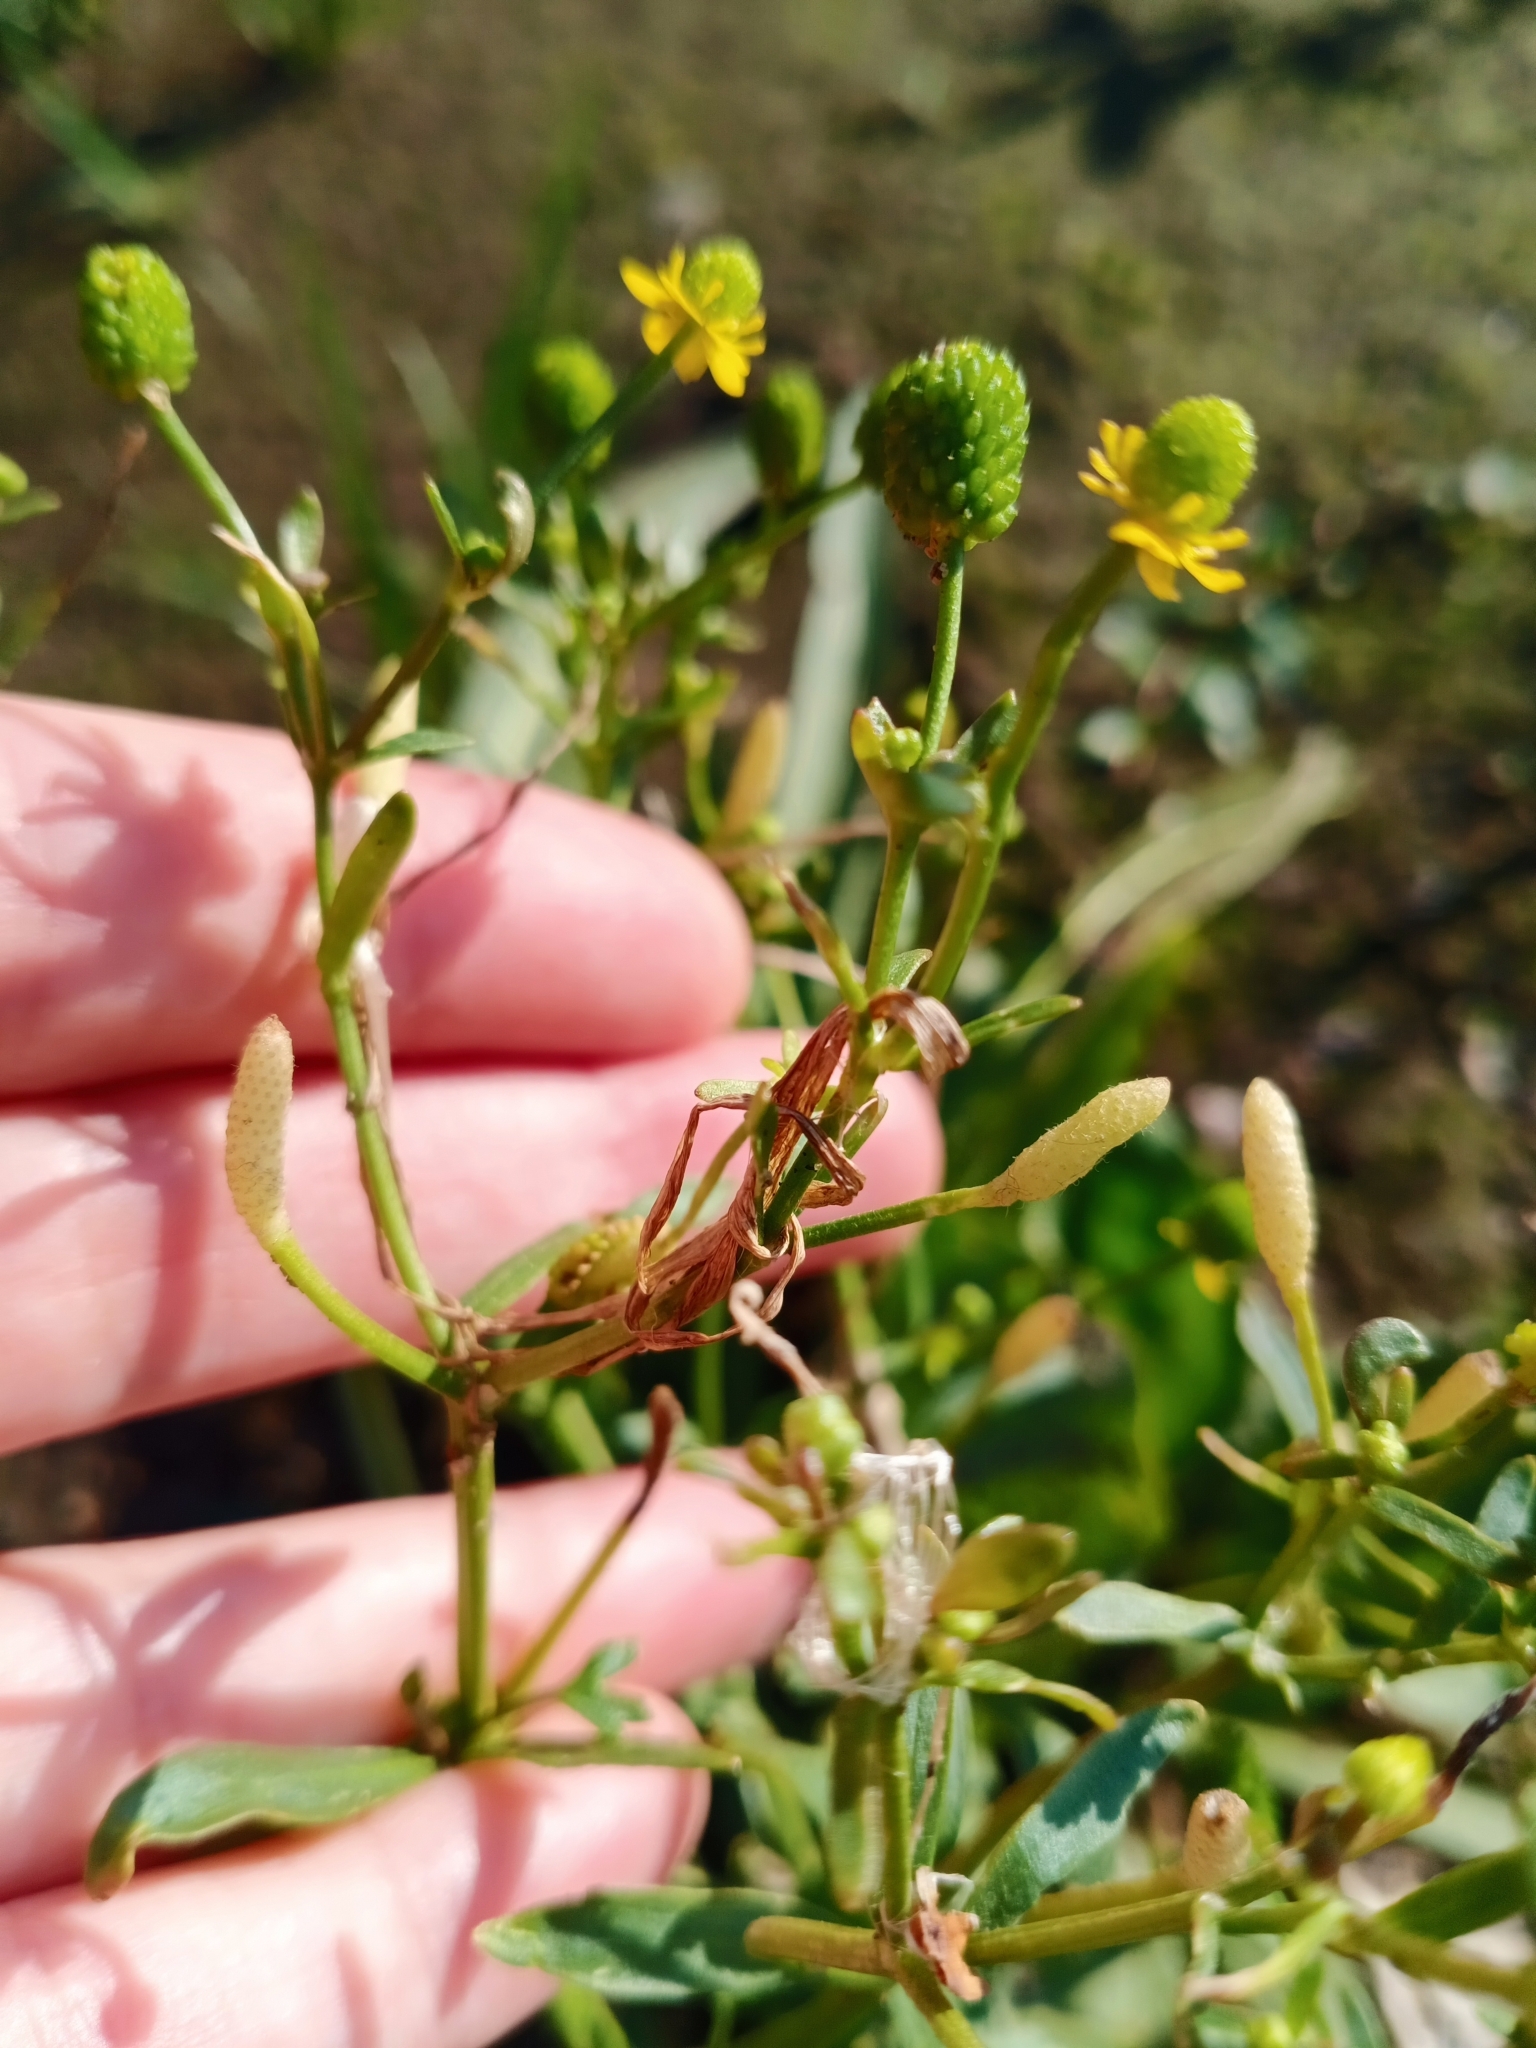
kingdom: Plantae
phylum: Tracheophyta
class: Magnoliopsida
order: Ranunculales
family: Ranunculaceae
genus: Ranunculus
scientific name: Ranunculus sceleratus
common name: Celery-leaved buttercup
